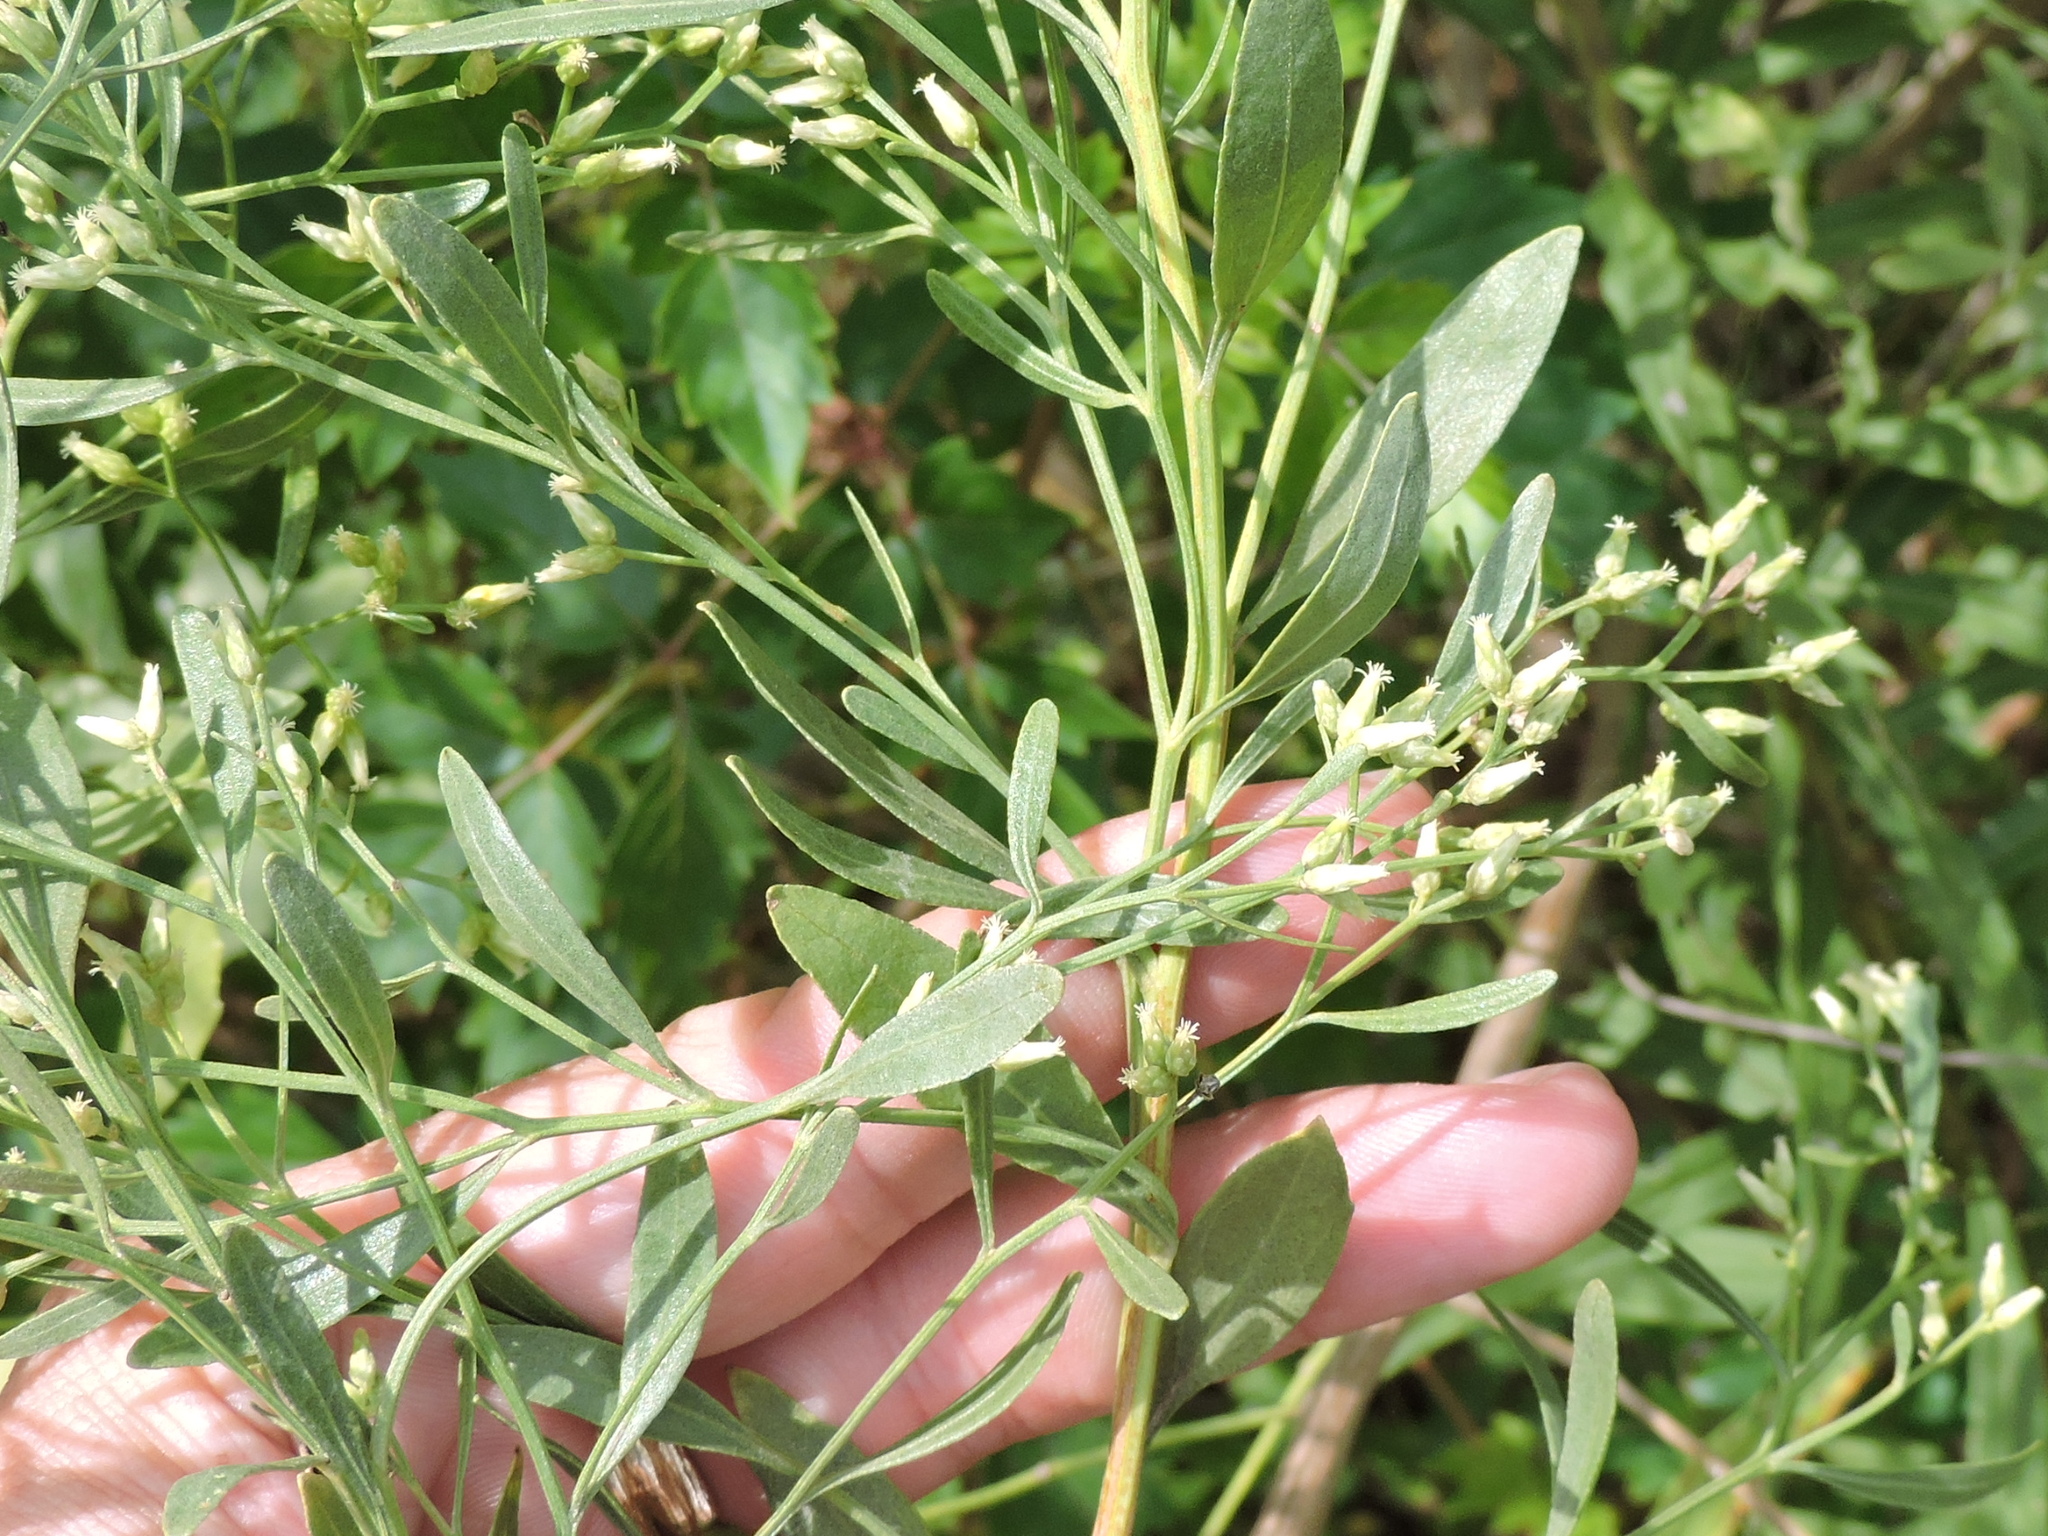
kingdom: Plantae
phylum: Tracheophyta
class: Magnoliopsida
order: Asterales
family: Asteraceae
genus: Baccharis
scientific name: Baccharis halimifolia
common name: Eastern baccharis
